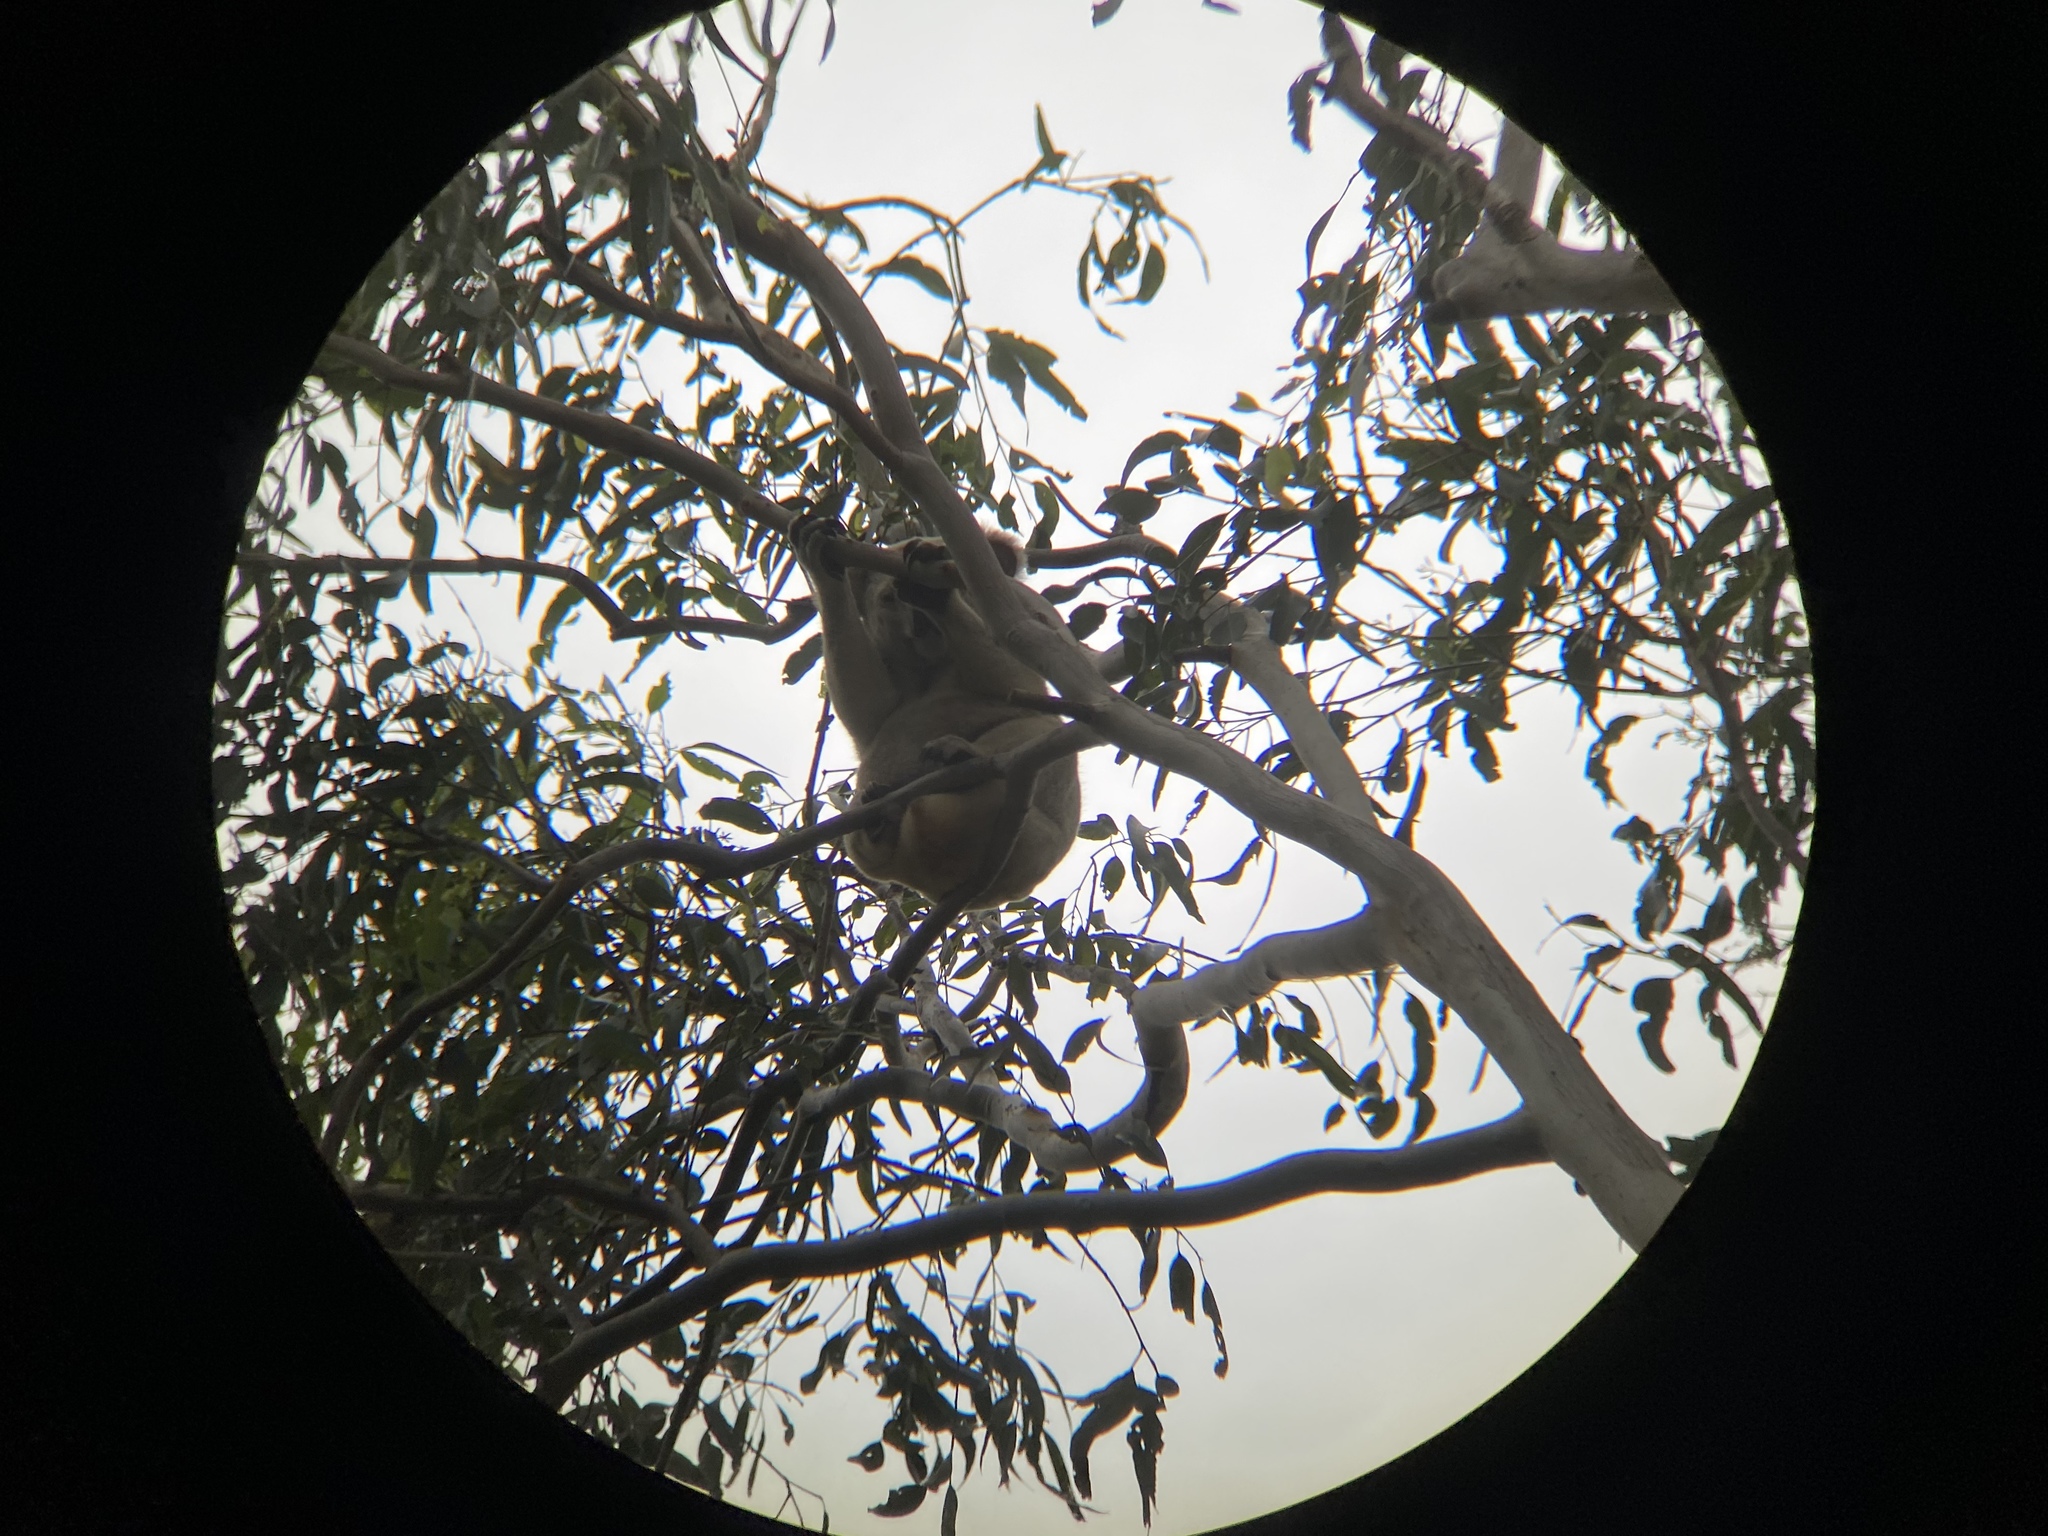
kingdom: Animalia
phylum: Chordata
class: Mammalia
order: Diprotodontia
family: Phascolarctidae
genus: Phascolarctos
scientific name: Phascolarctos cinereus
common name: Koala
